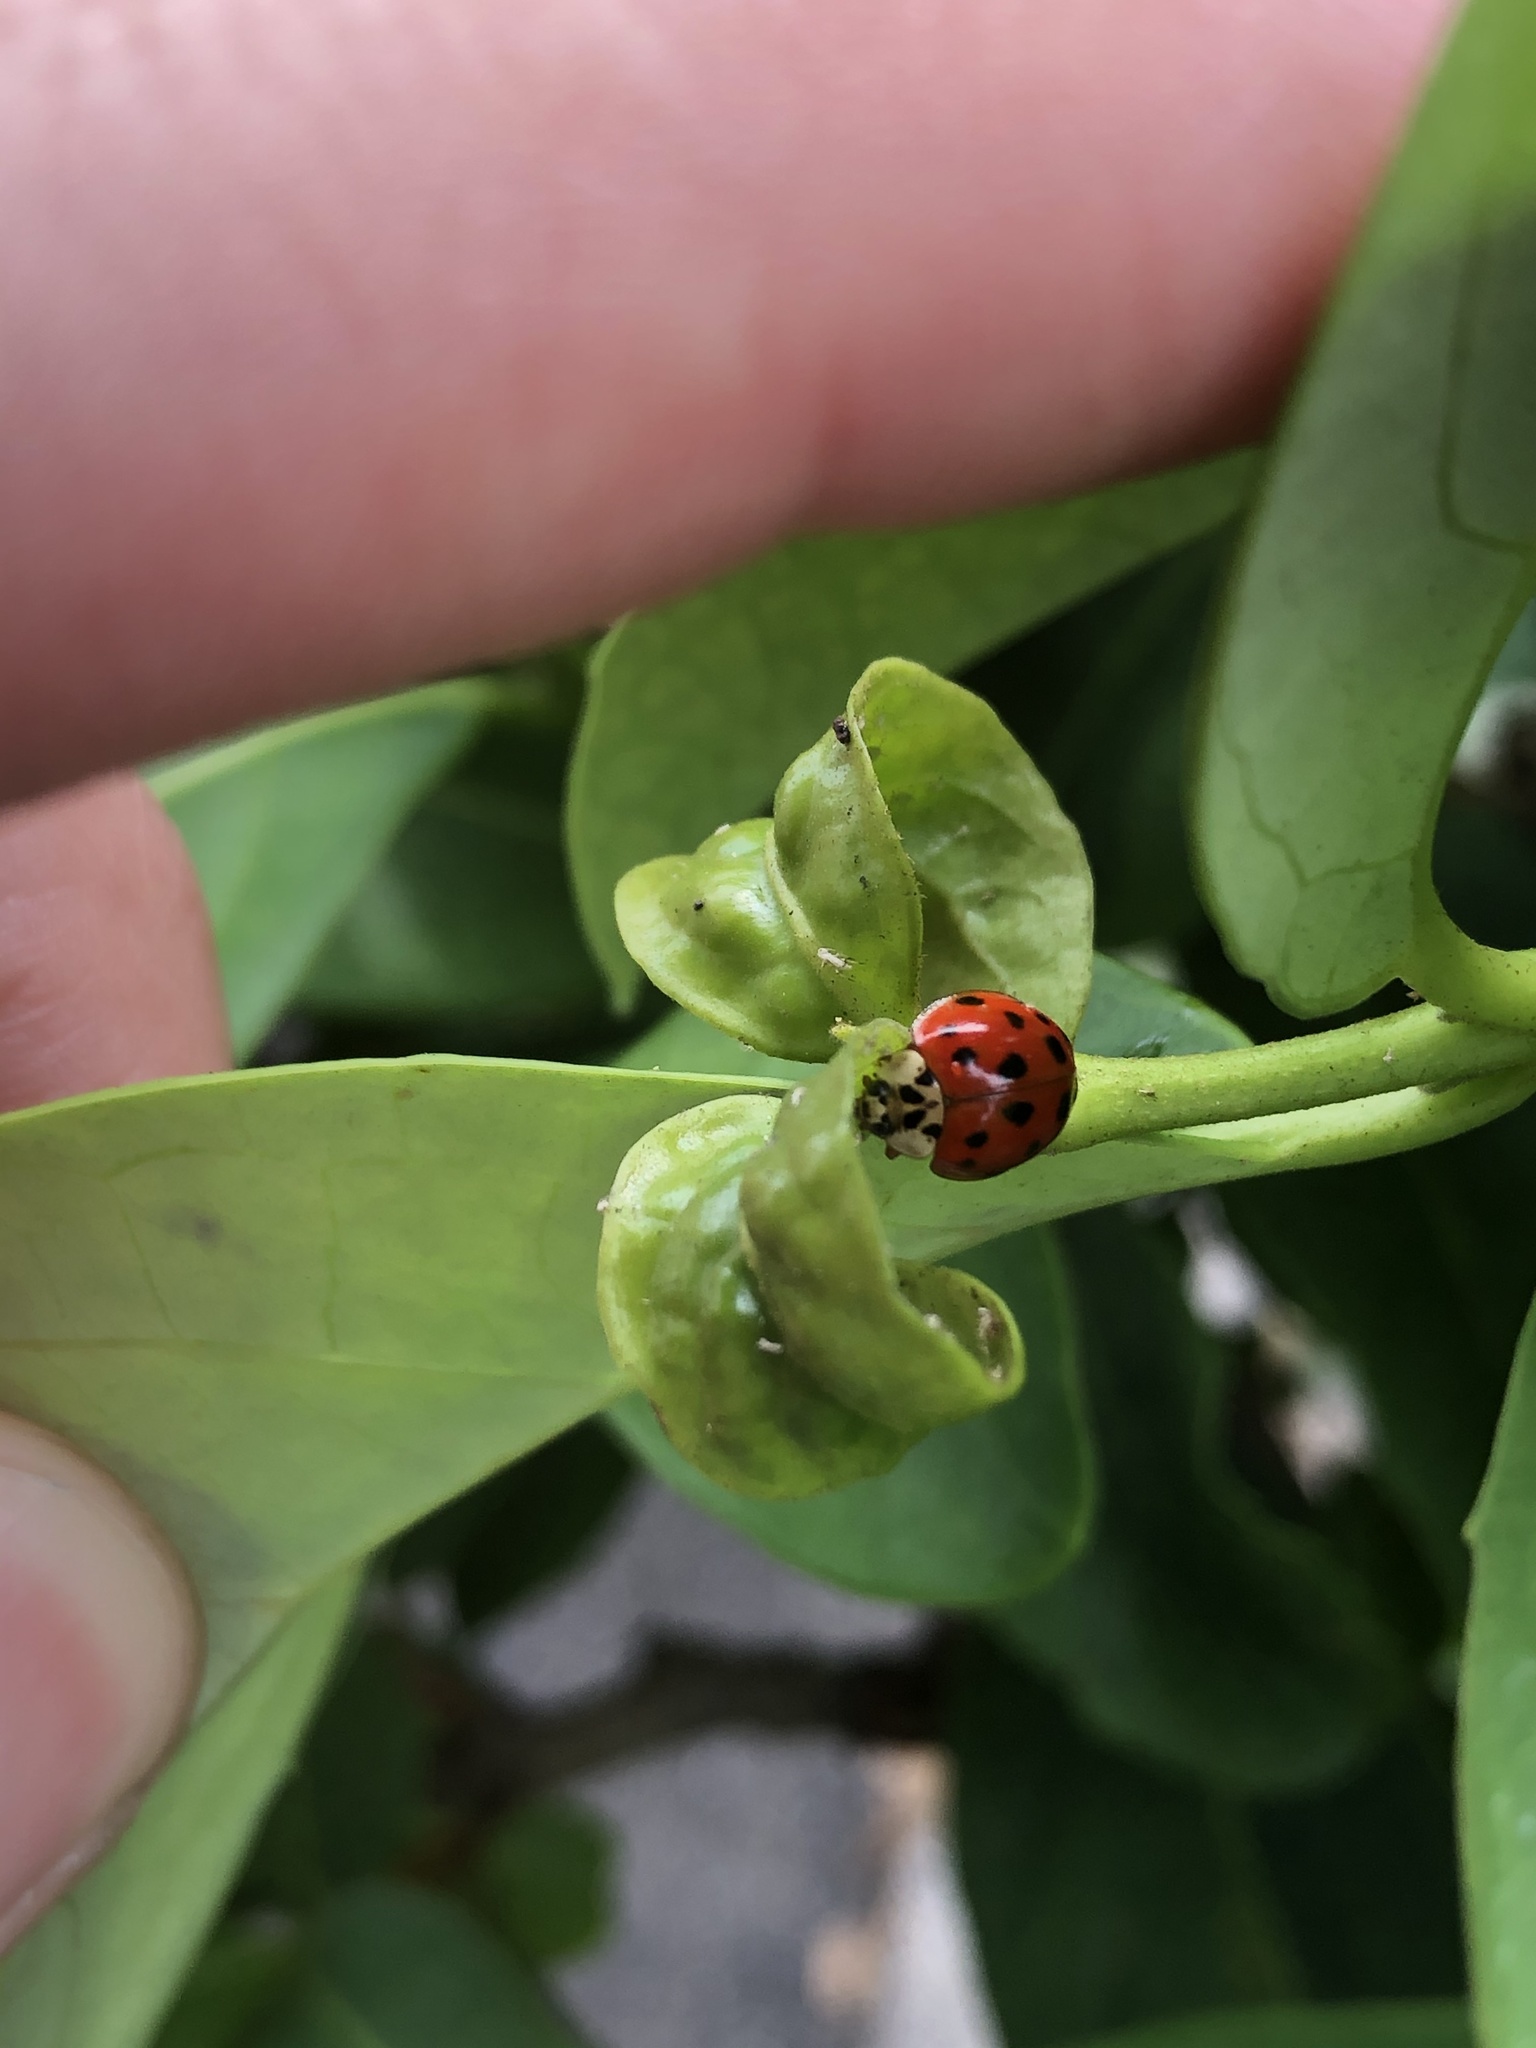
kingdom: Animalia
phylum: Arthropoda
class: Insecta
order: Coleoptera
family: Coccinellidae
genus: Harmonia
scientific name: Harmonia axyridis
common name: Harlequin ladybird
